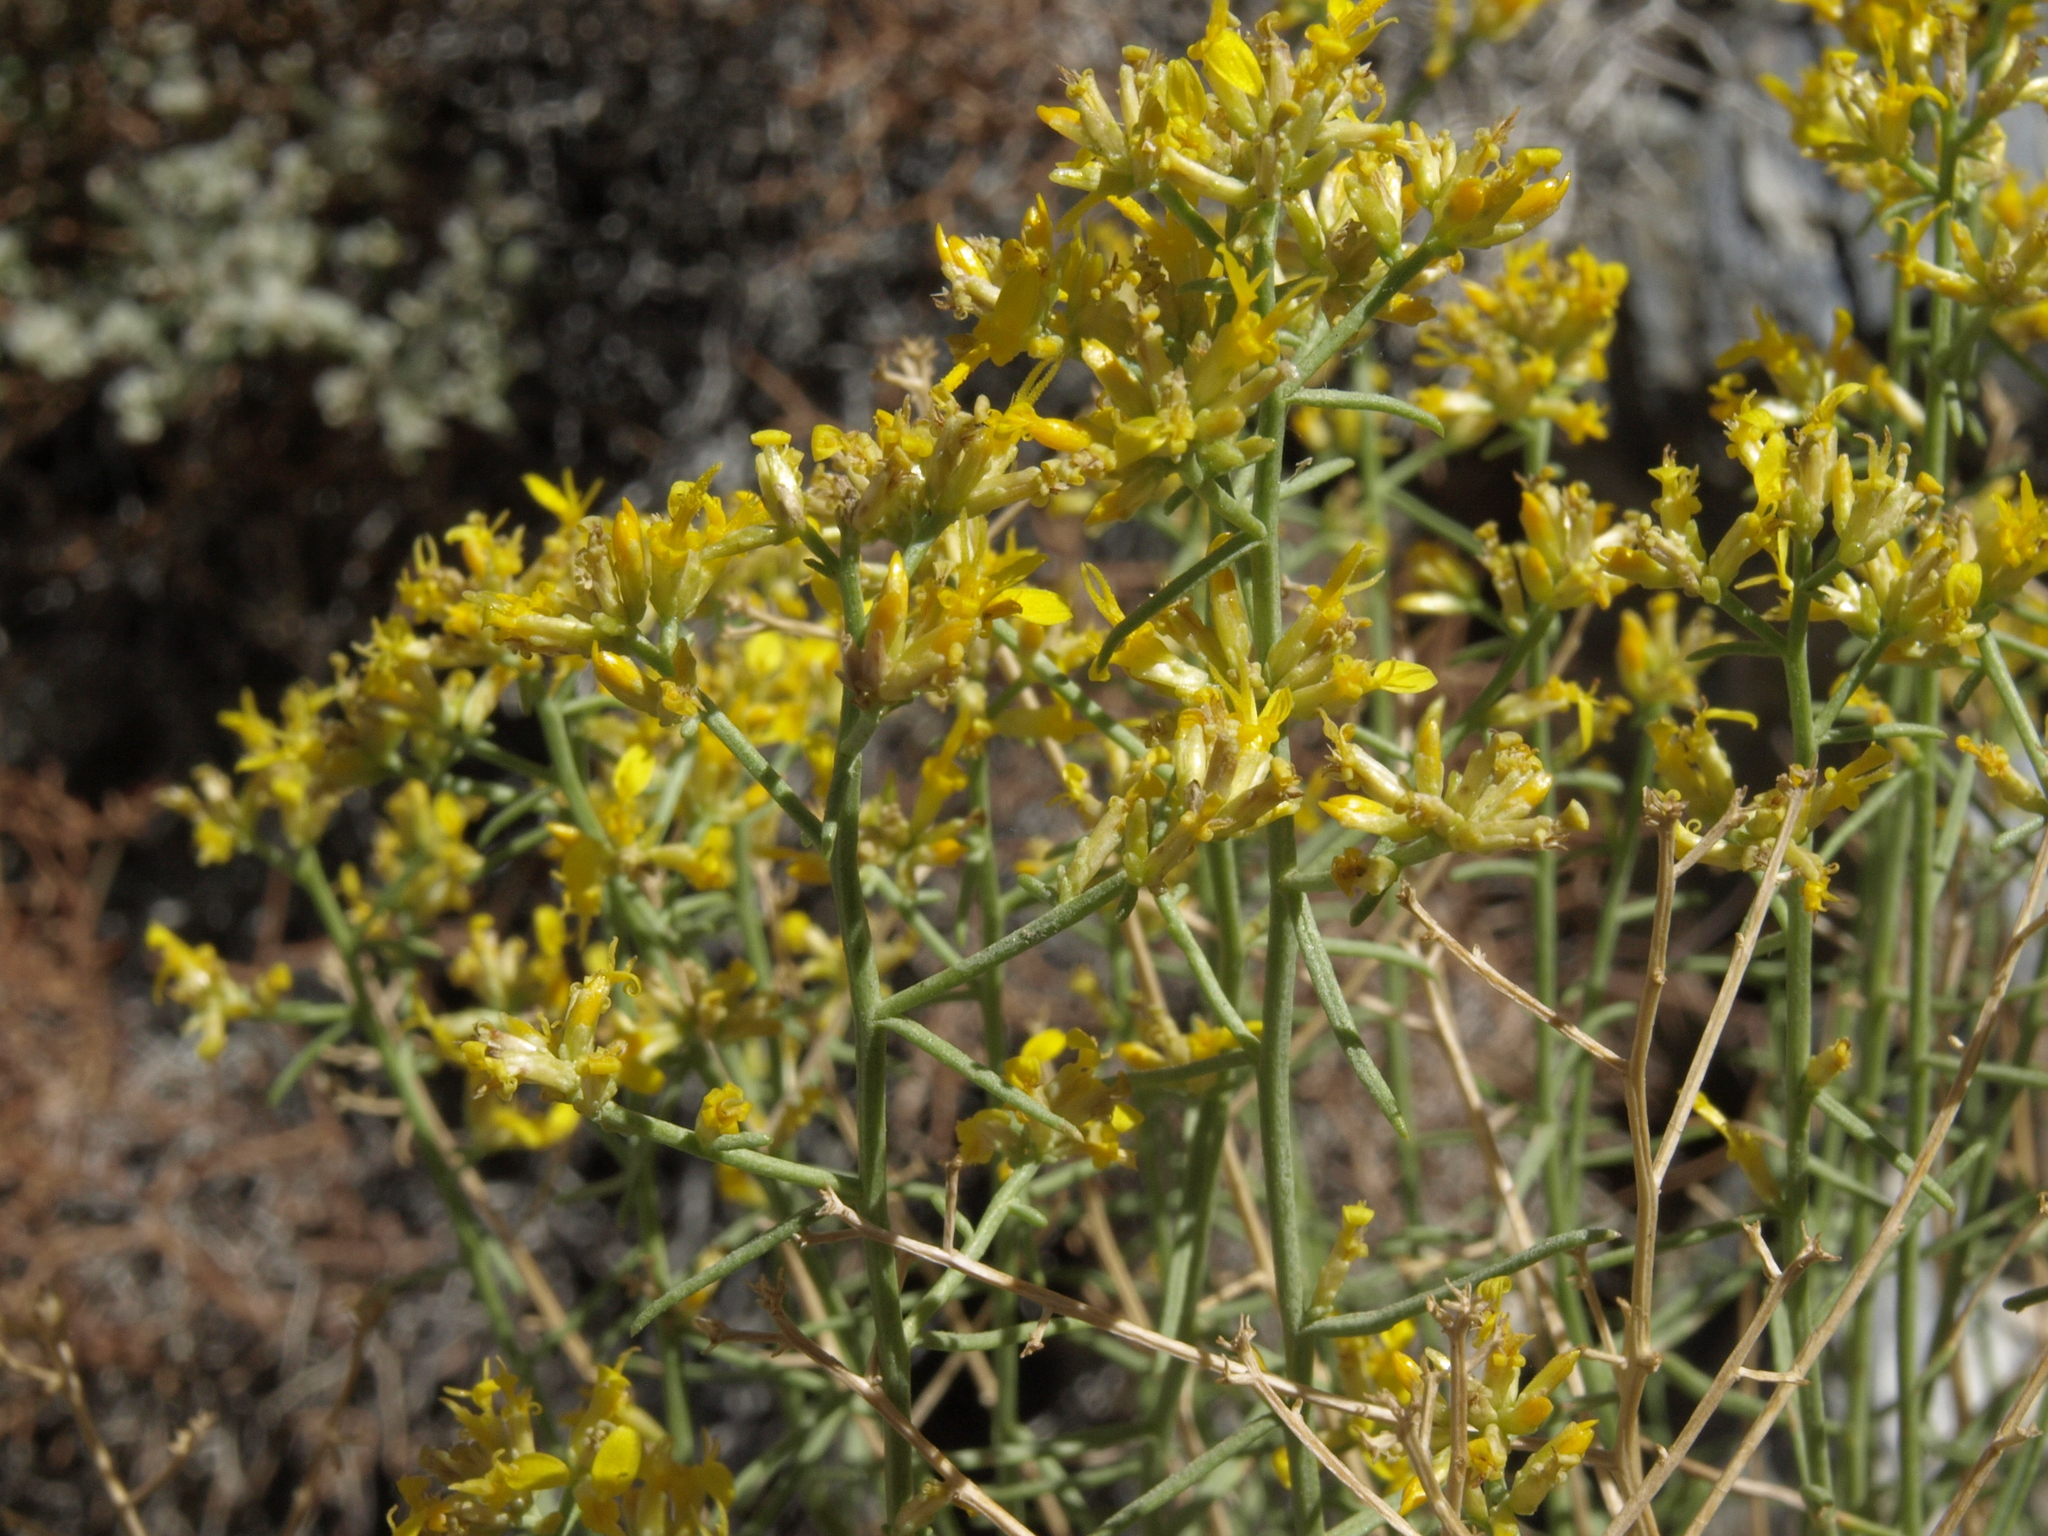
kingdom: Plantae
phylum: Tracheophyta
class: Magnoliopsida
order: Asterales
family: Asteraceae
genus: Gutierrezia
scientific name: Gutierrezia microcephala
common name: Thread snakeweed
